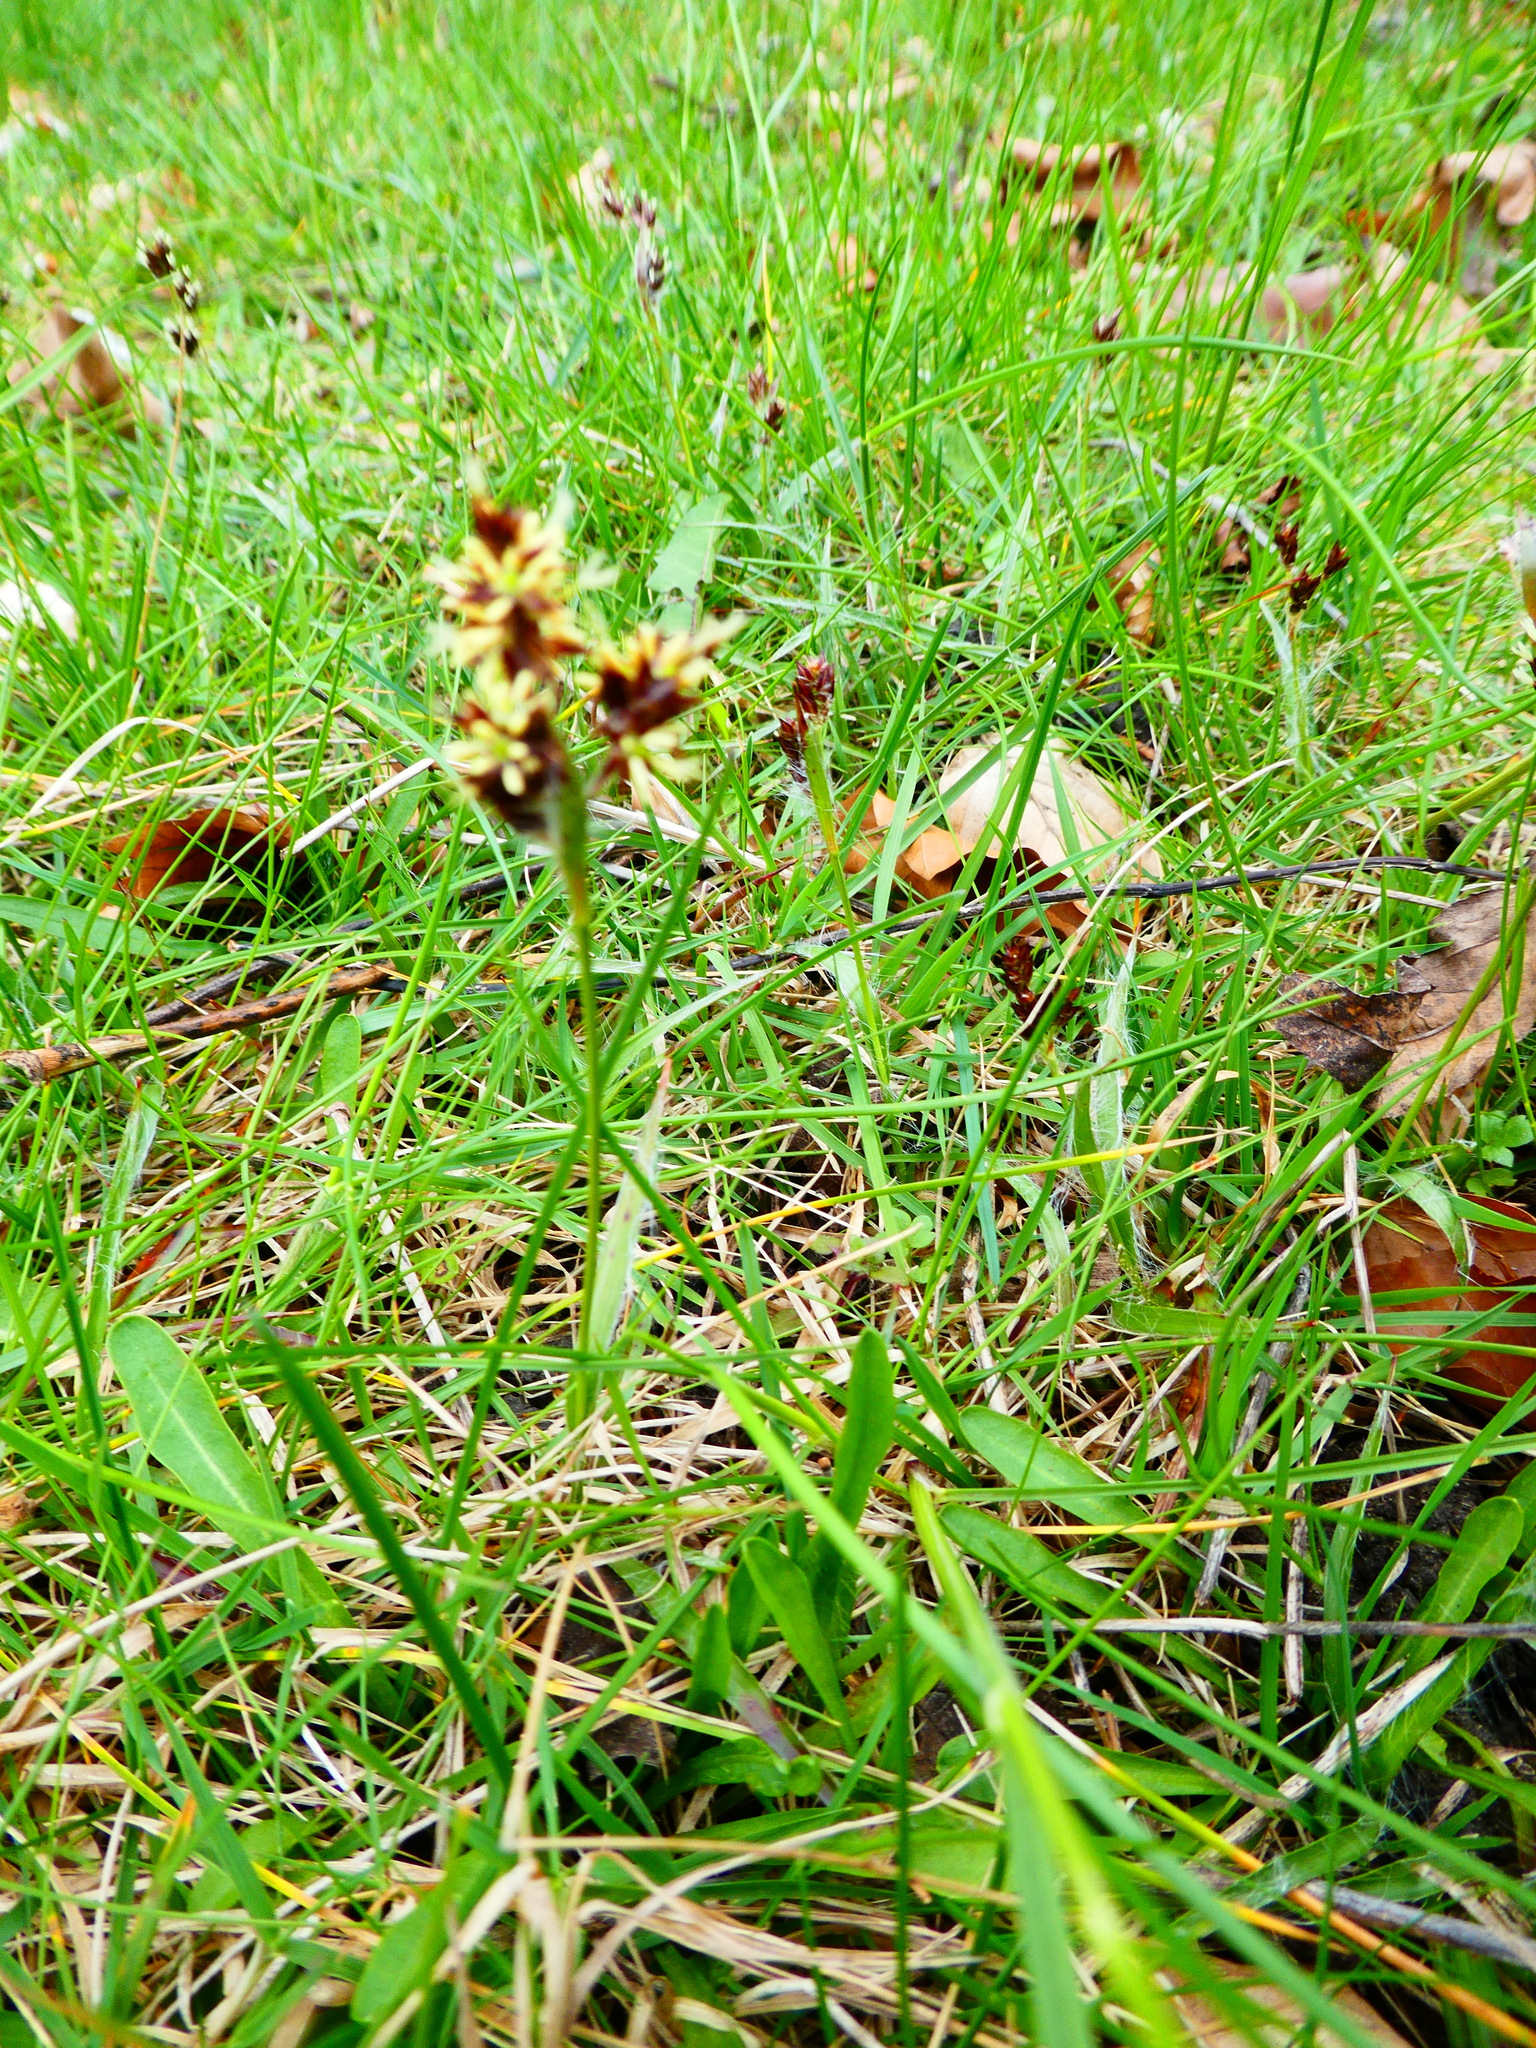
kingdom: Plantae
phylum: Tracheophyta
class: Liliopsida
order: Poales
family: Juncaceae
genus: Luzula
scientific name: Luzula campestris
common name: Field wood-rush
